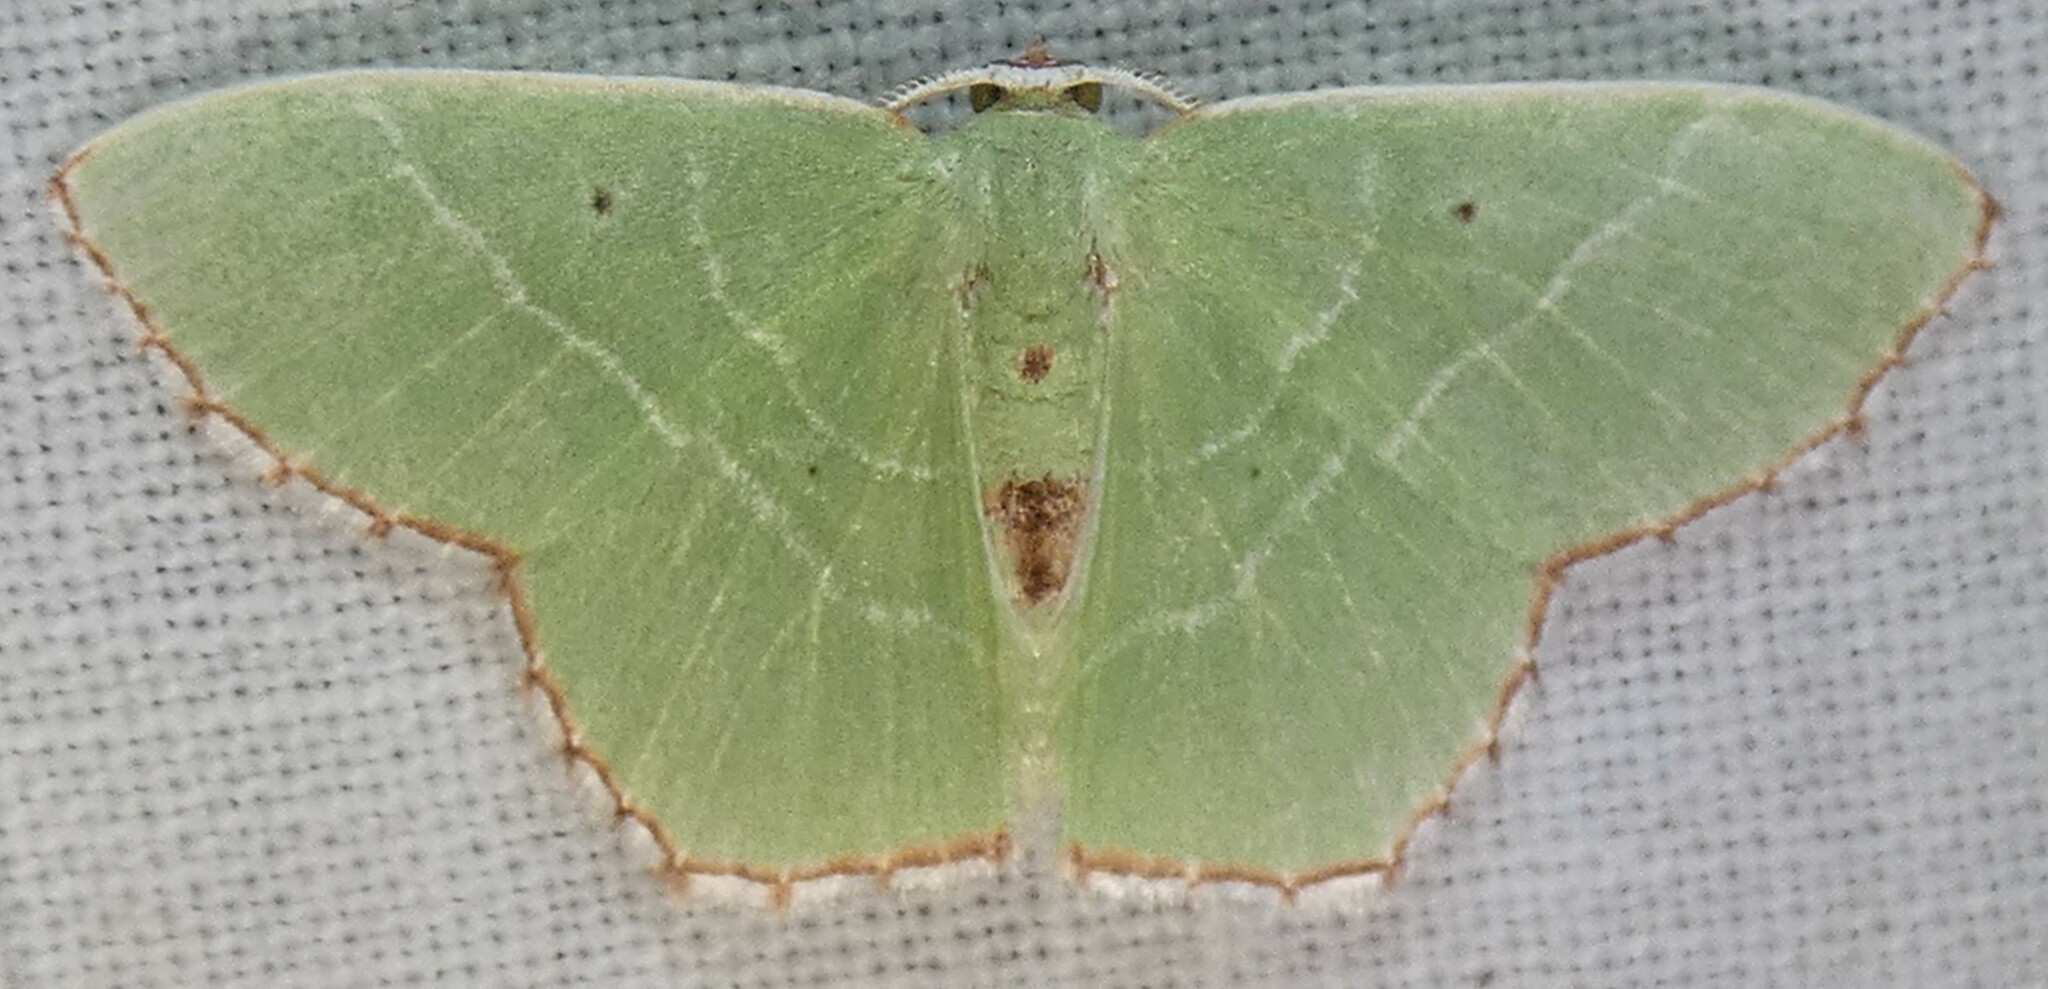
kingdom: Animalia
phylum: Arthropoda
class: Insecta
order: Lepidoptera
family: Geometridae
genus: Nemoria
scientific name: Nemoria saturiba
